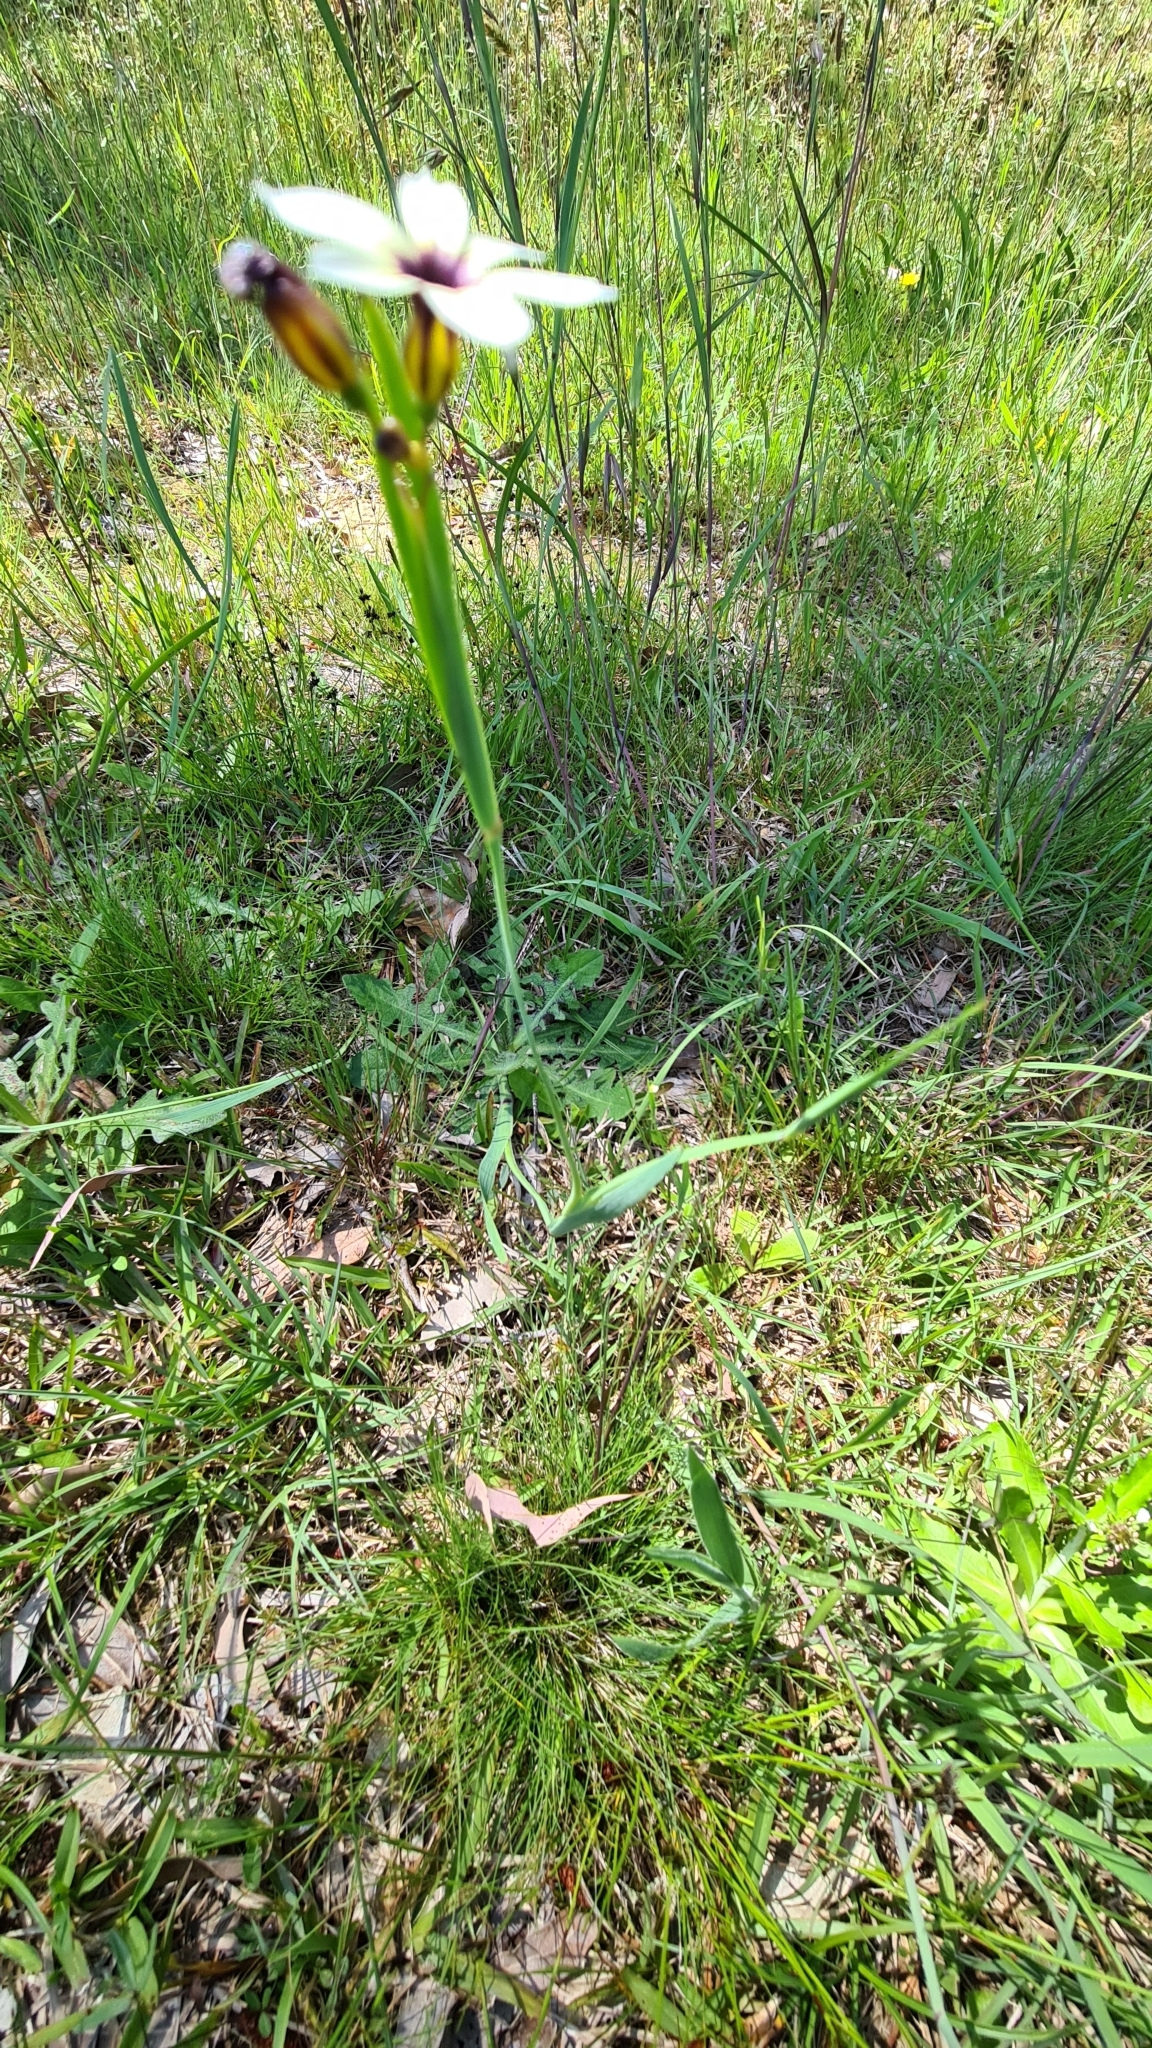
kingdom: Plantae
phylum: Tracheophyta
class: Liliopsida
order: Asparagales
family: Iridaceae
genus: Sisyrinchium
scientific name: Sisyrinchium micranthum
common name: Bermuda pigroot
